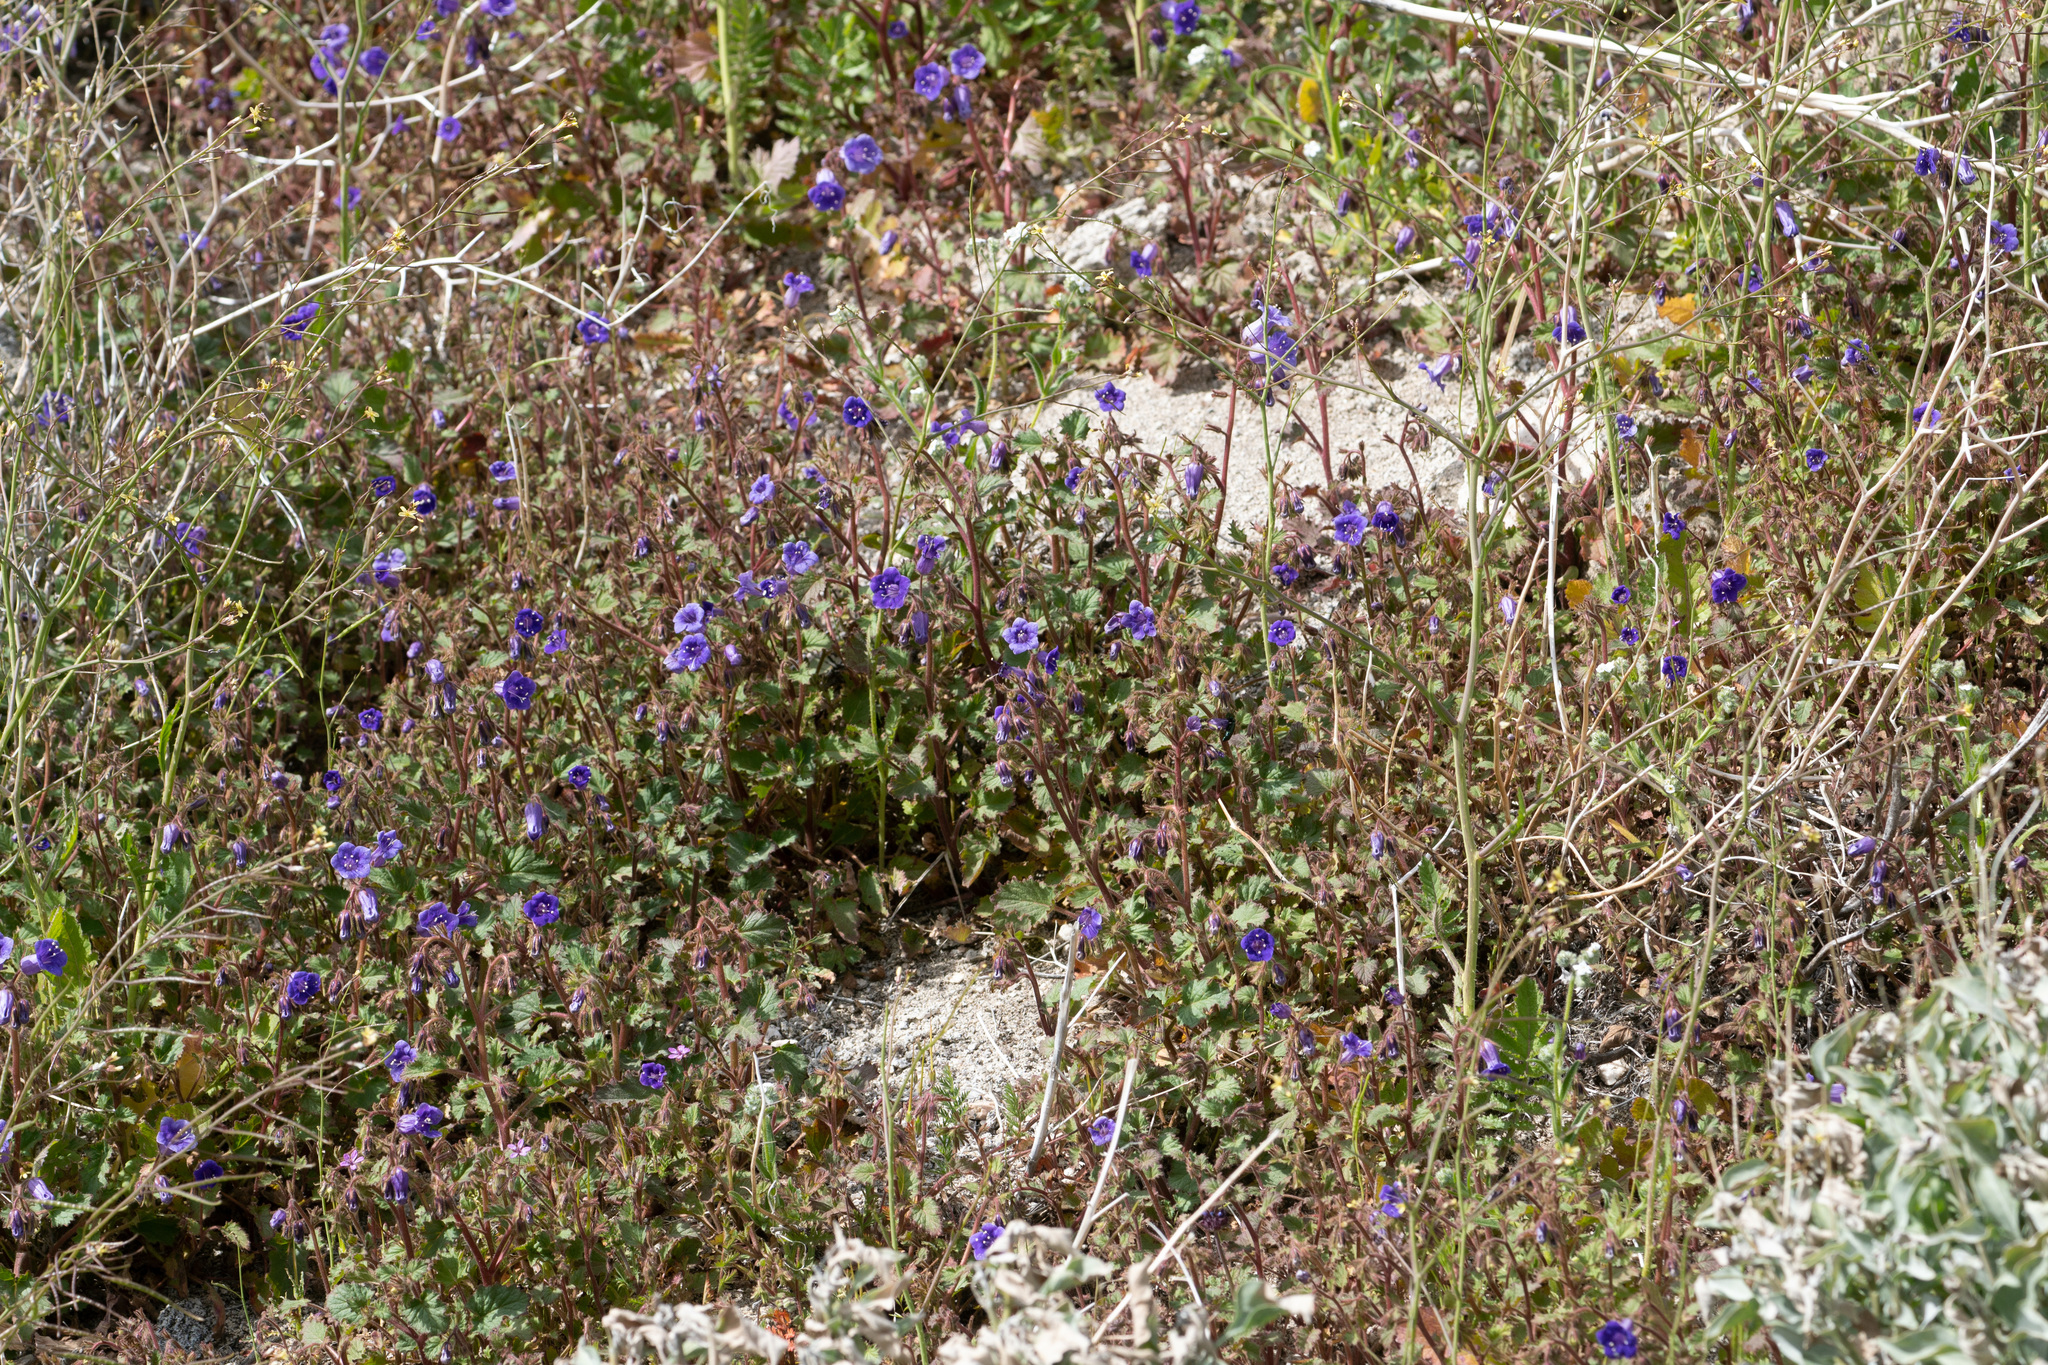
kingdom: Plantae
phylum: Tracheophyta
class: Magnoliopsida
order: Boraginales
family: Hydrophyllaceae
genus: Phacelia
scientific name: Phacelia minor
